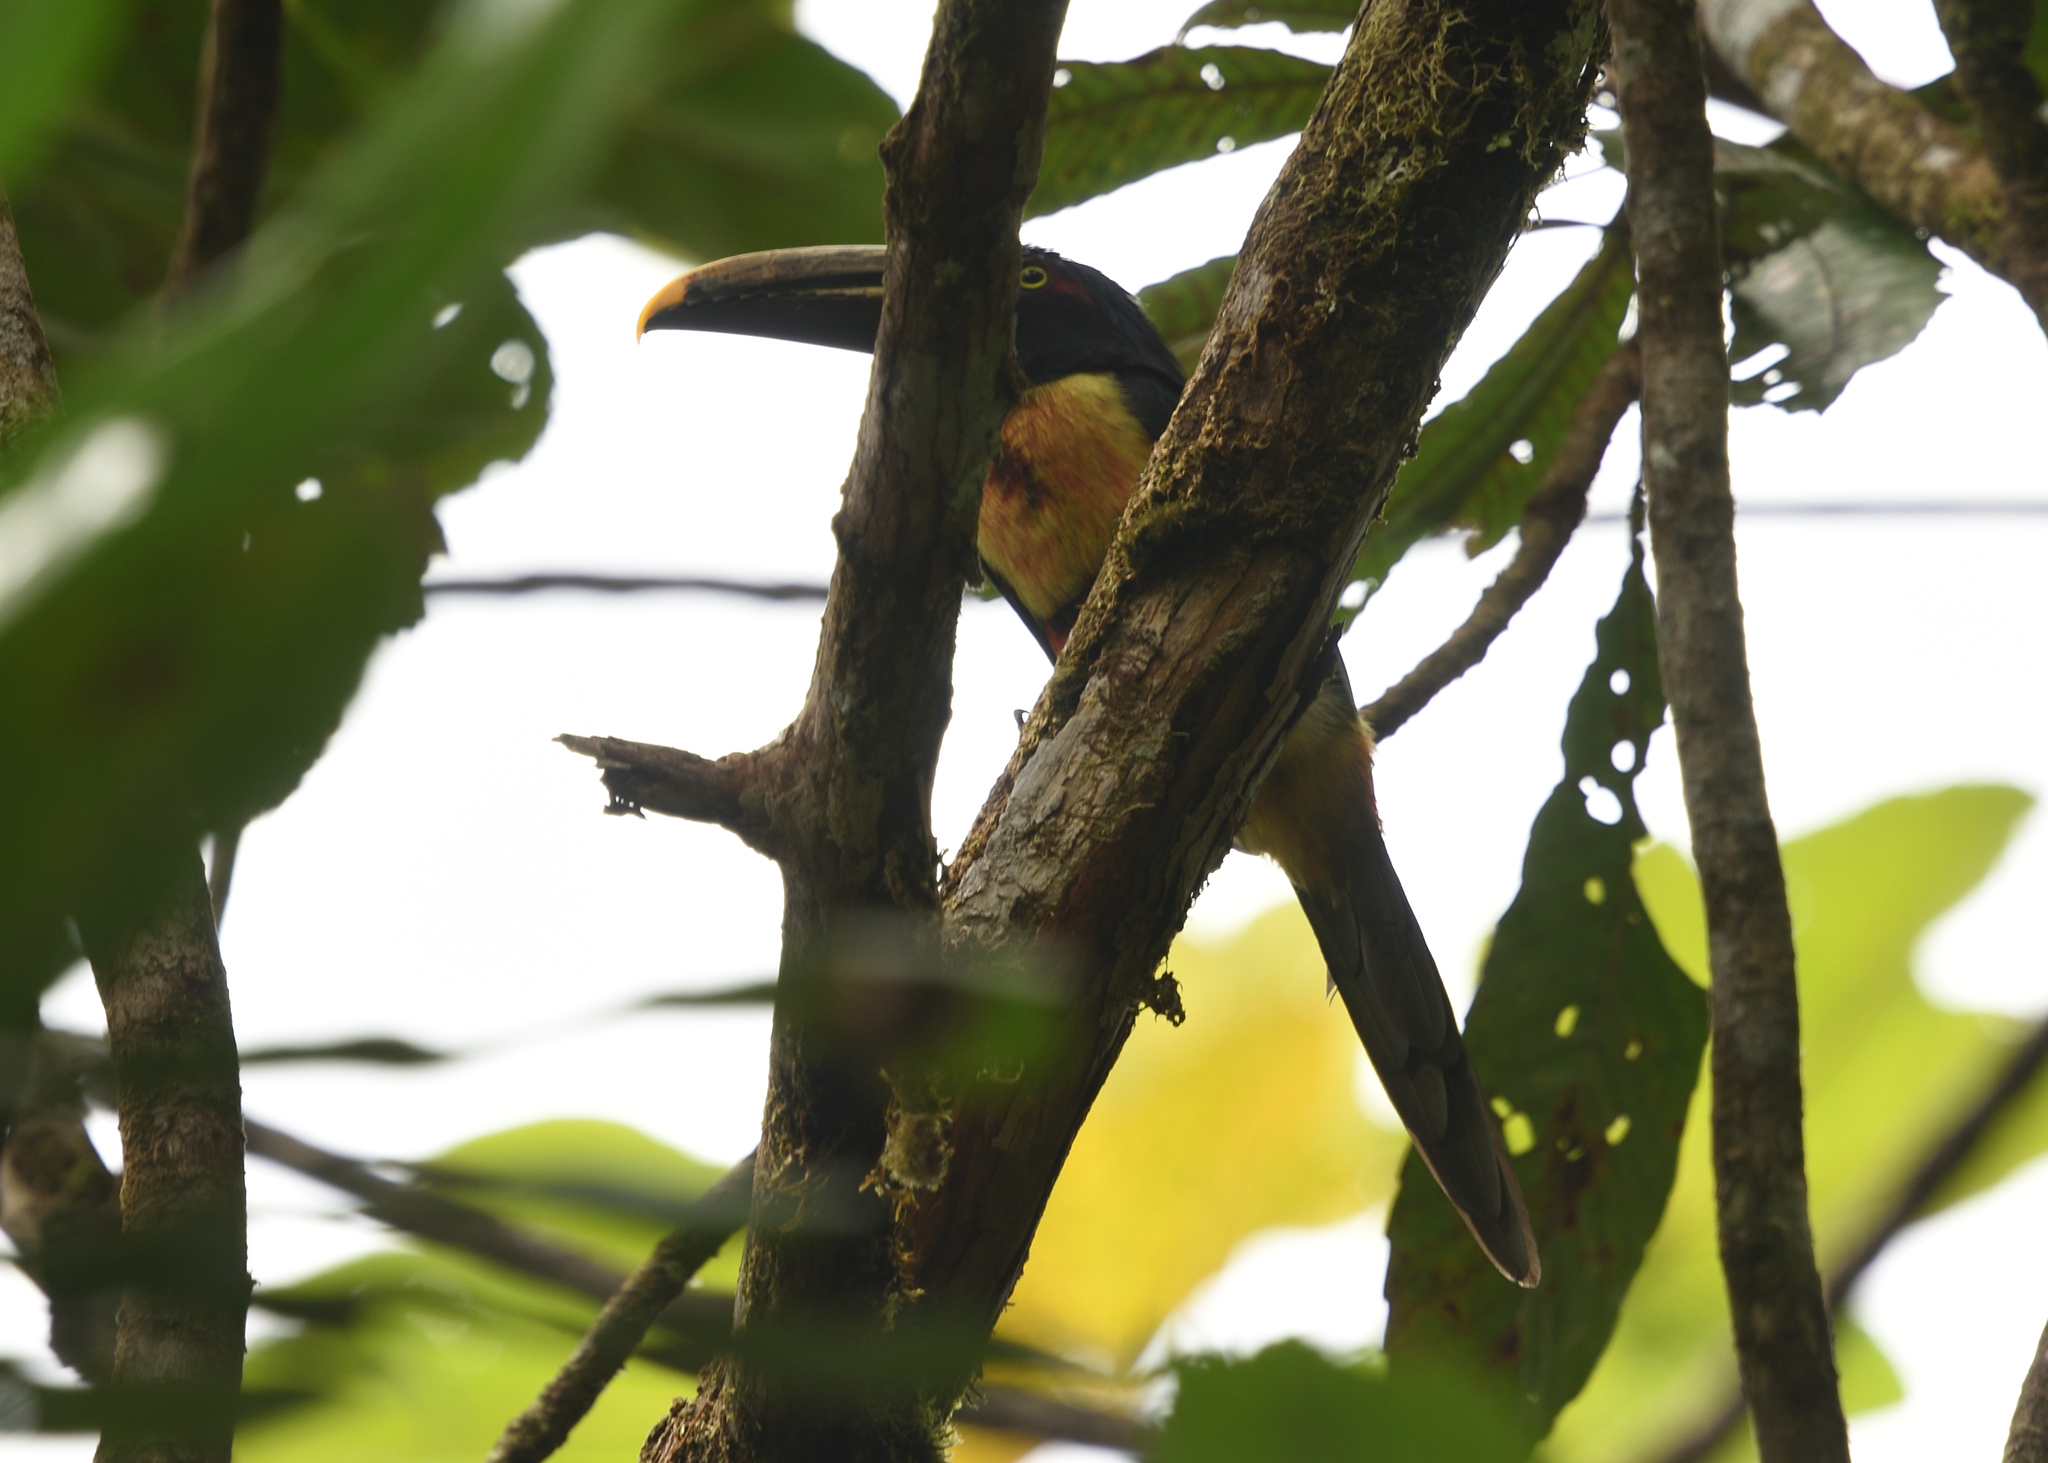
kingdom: Animalia
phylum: Chordata
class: Aves
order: Piciformes
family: Ramphastidae
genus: Pteroglossus
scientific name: Pteroglossus torquatus
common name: Collared aracari
